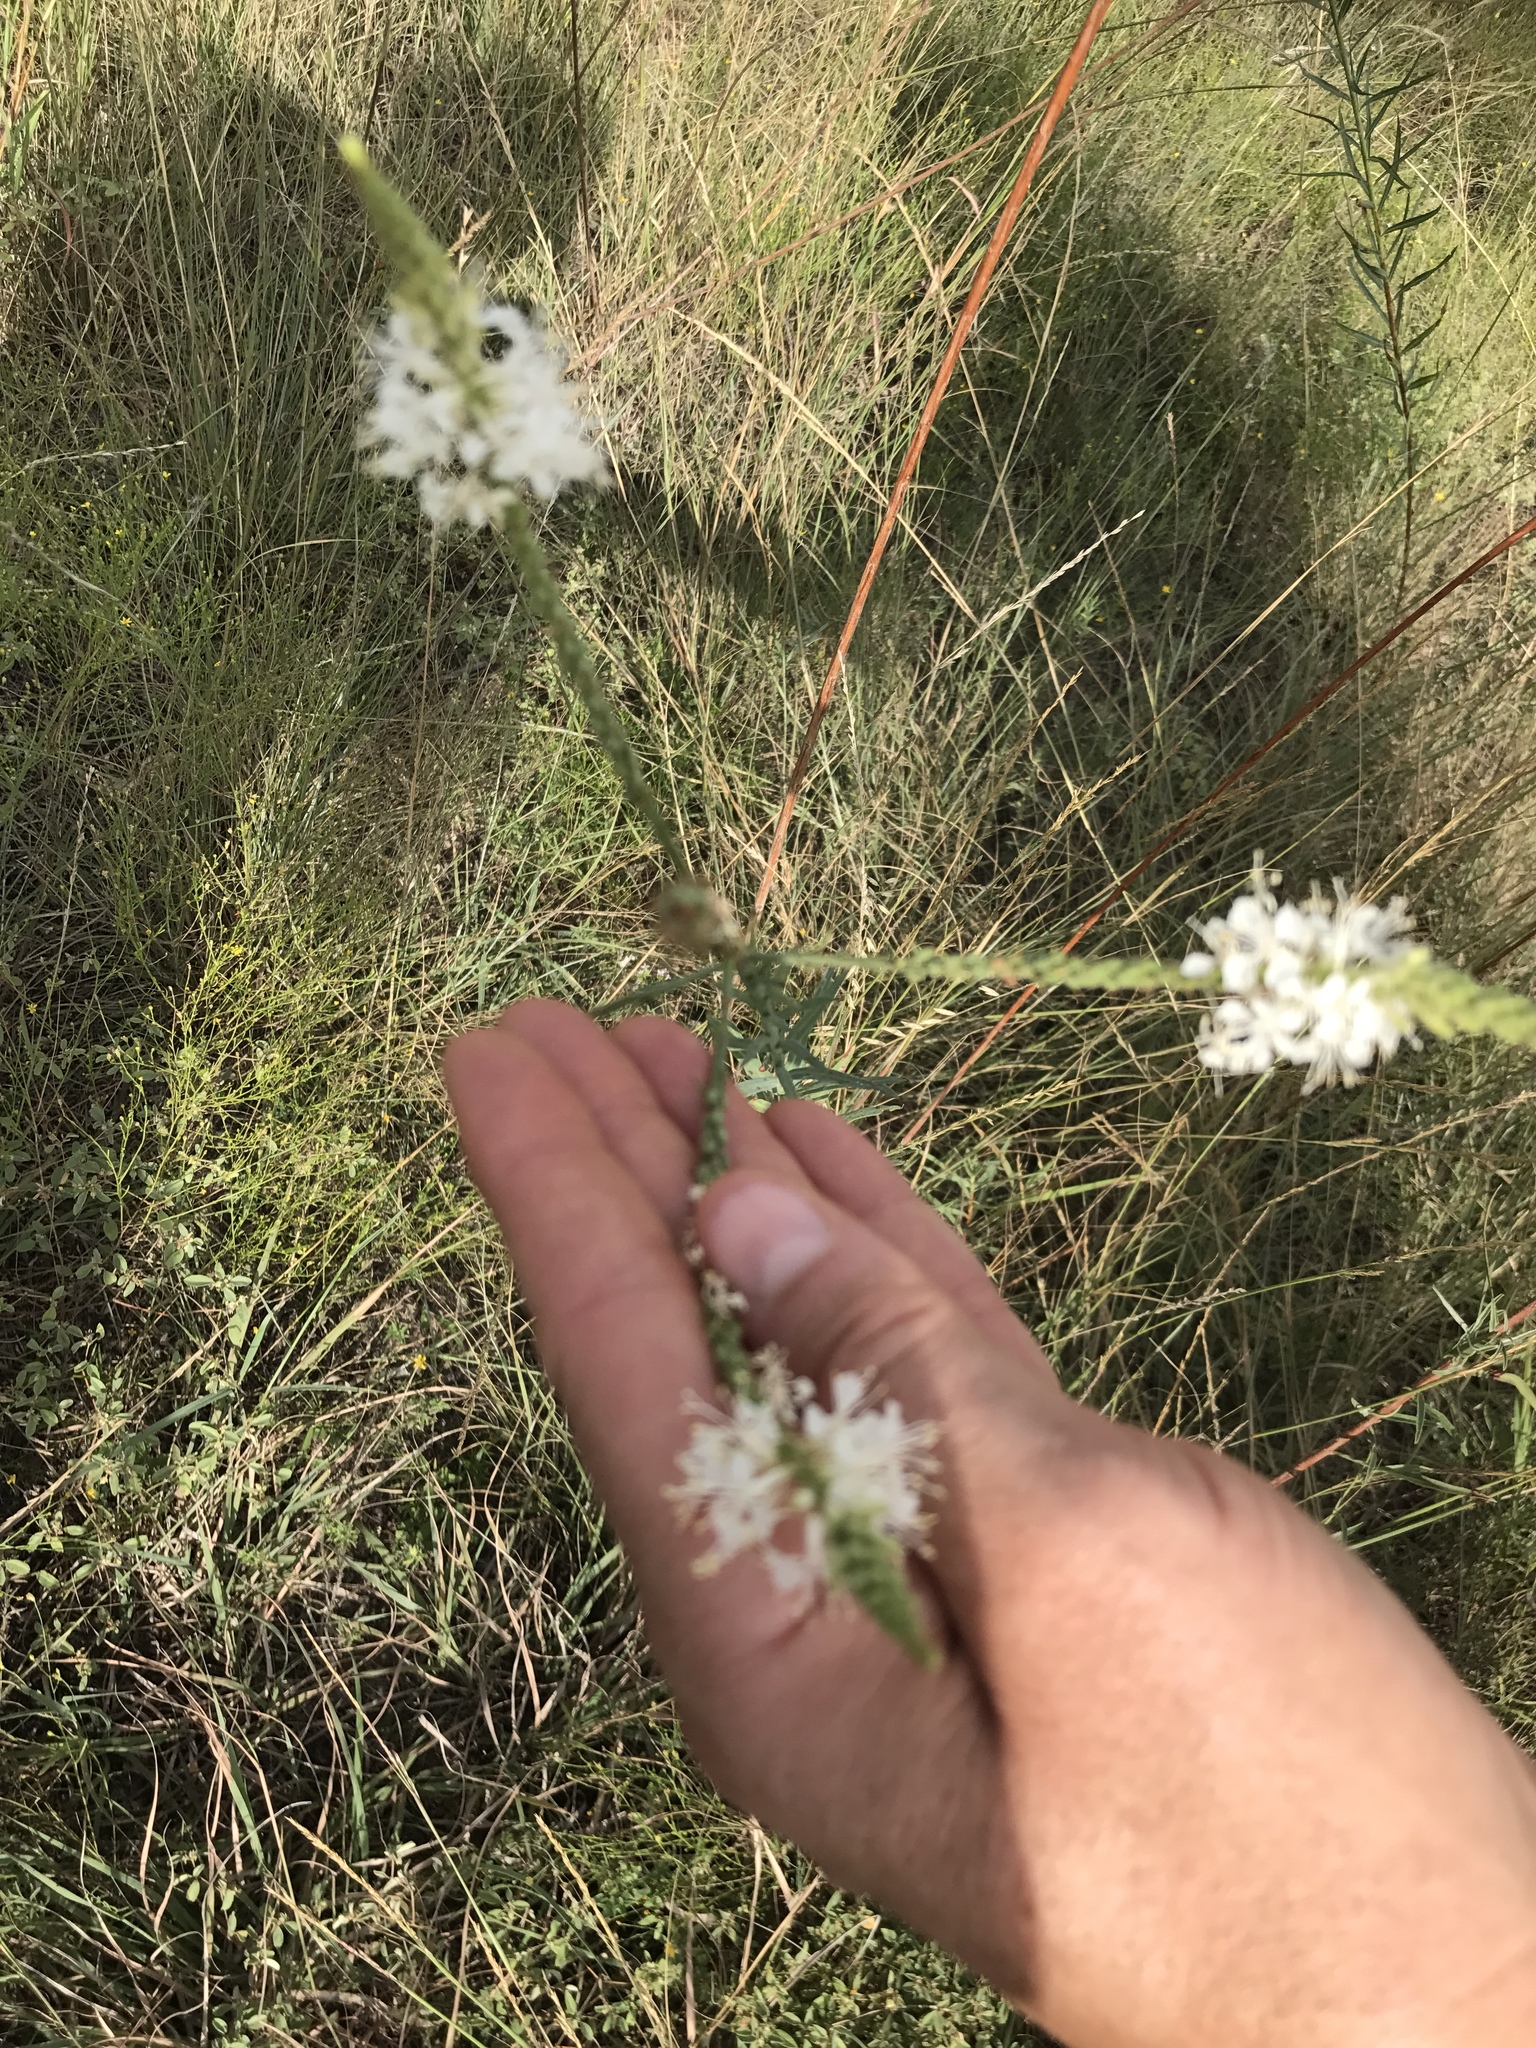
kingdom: Plantae
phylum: Tracheophyta
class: Magnoliopsida
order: Myrtales
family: Onagraceae
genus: Oenothera
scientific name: Oenothera glaucifolia
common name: False gaura
